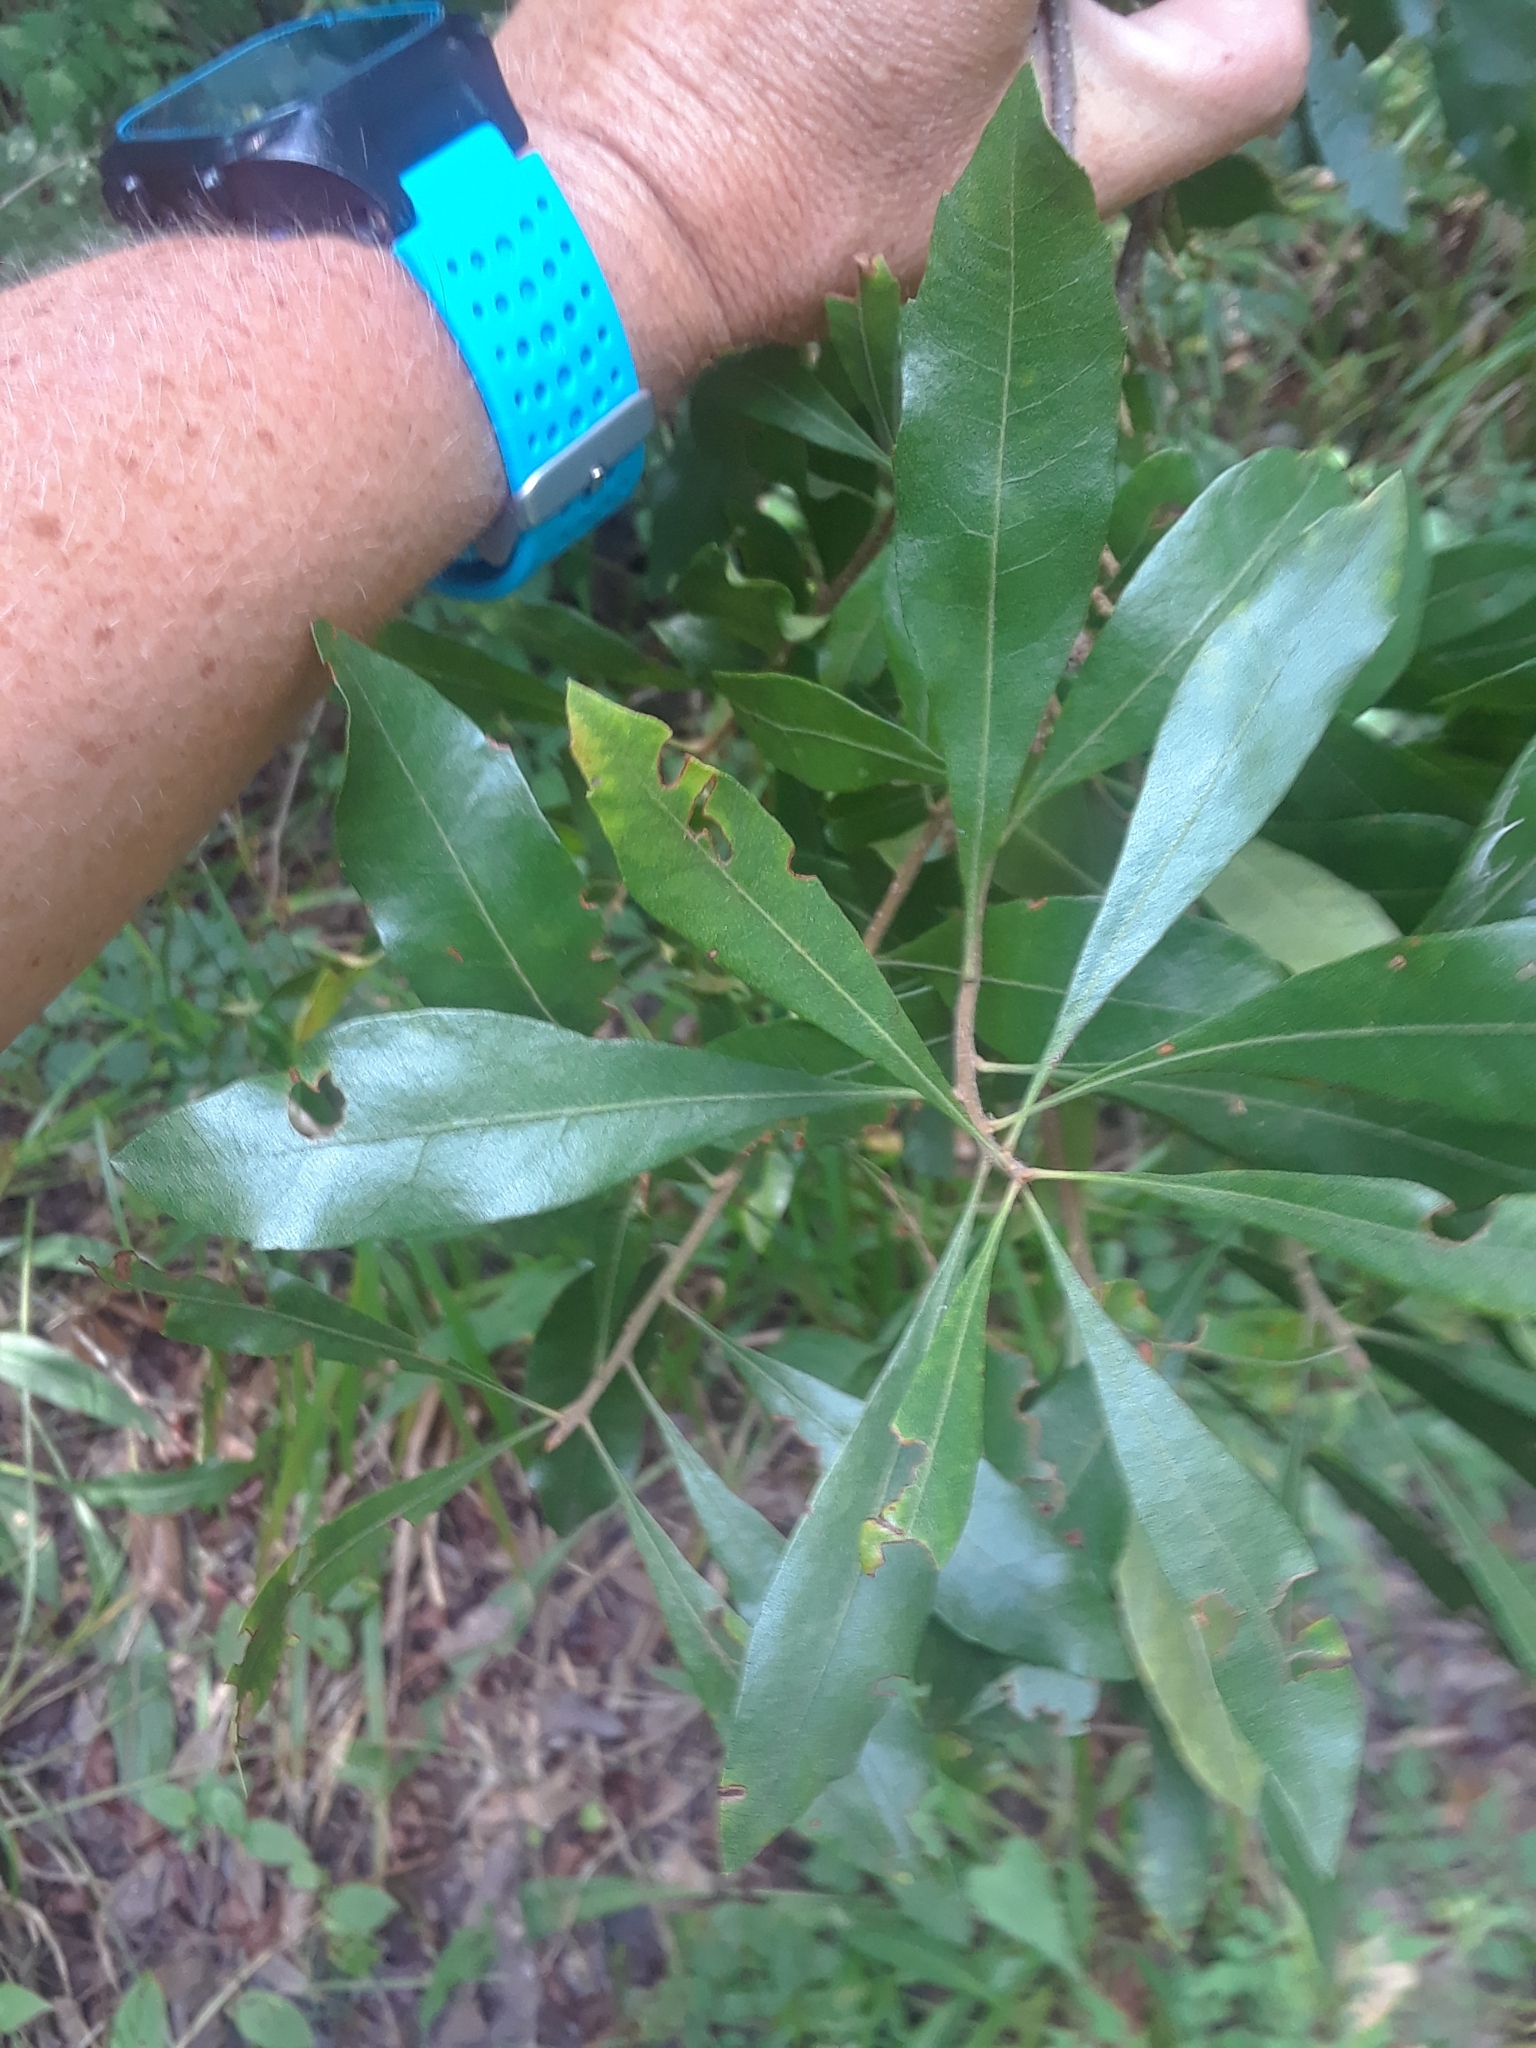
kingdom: Plantae
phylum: Tracheophyta
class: Magnoliopsida
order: Fagales
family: Myricaceae
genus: Morella
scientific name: Morella cerifera
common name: Wax myrtle
